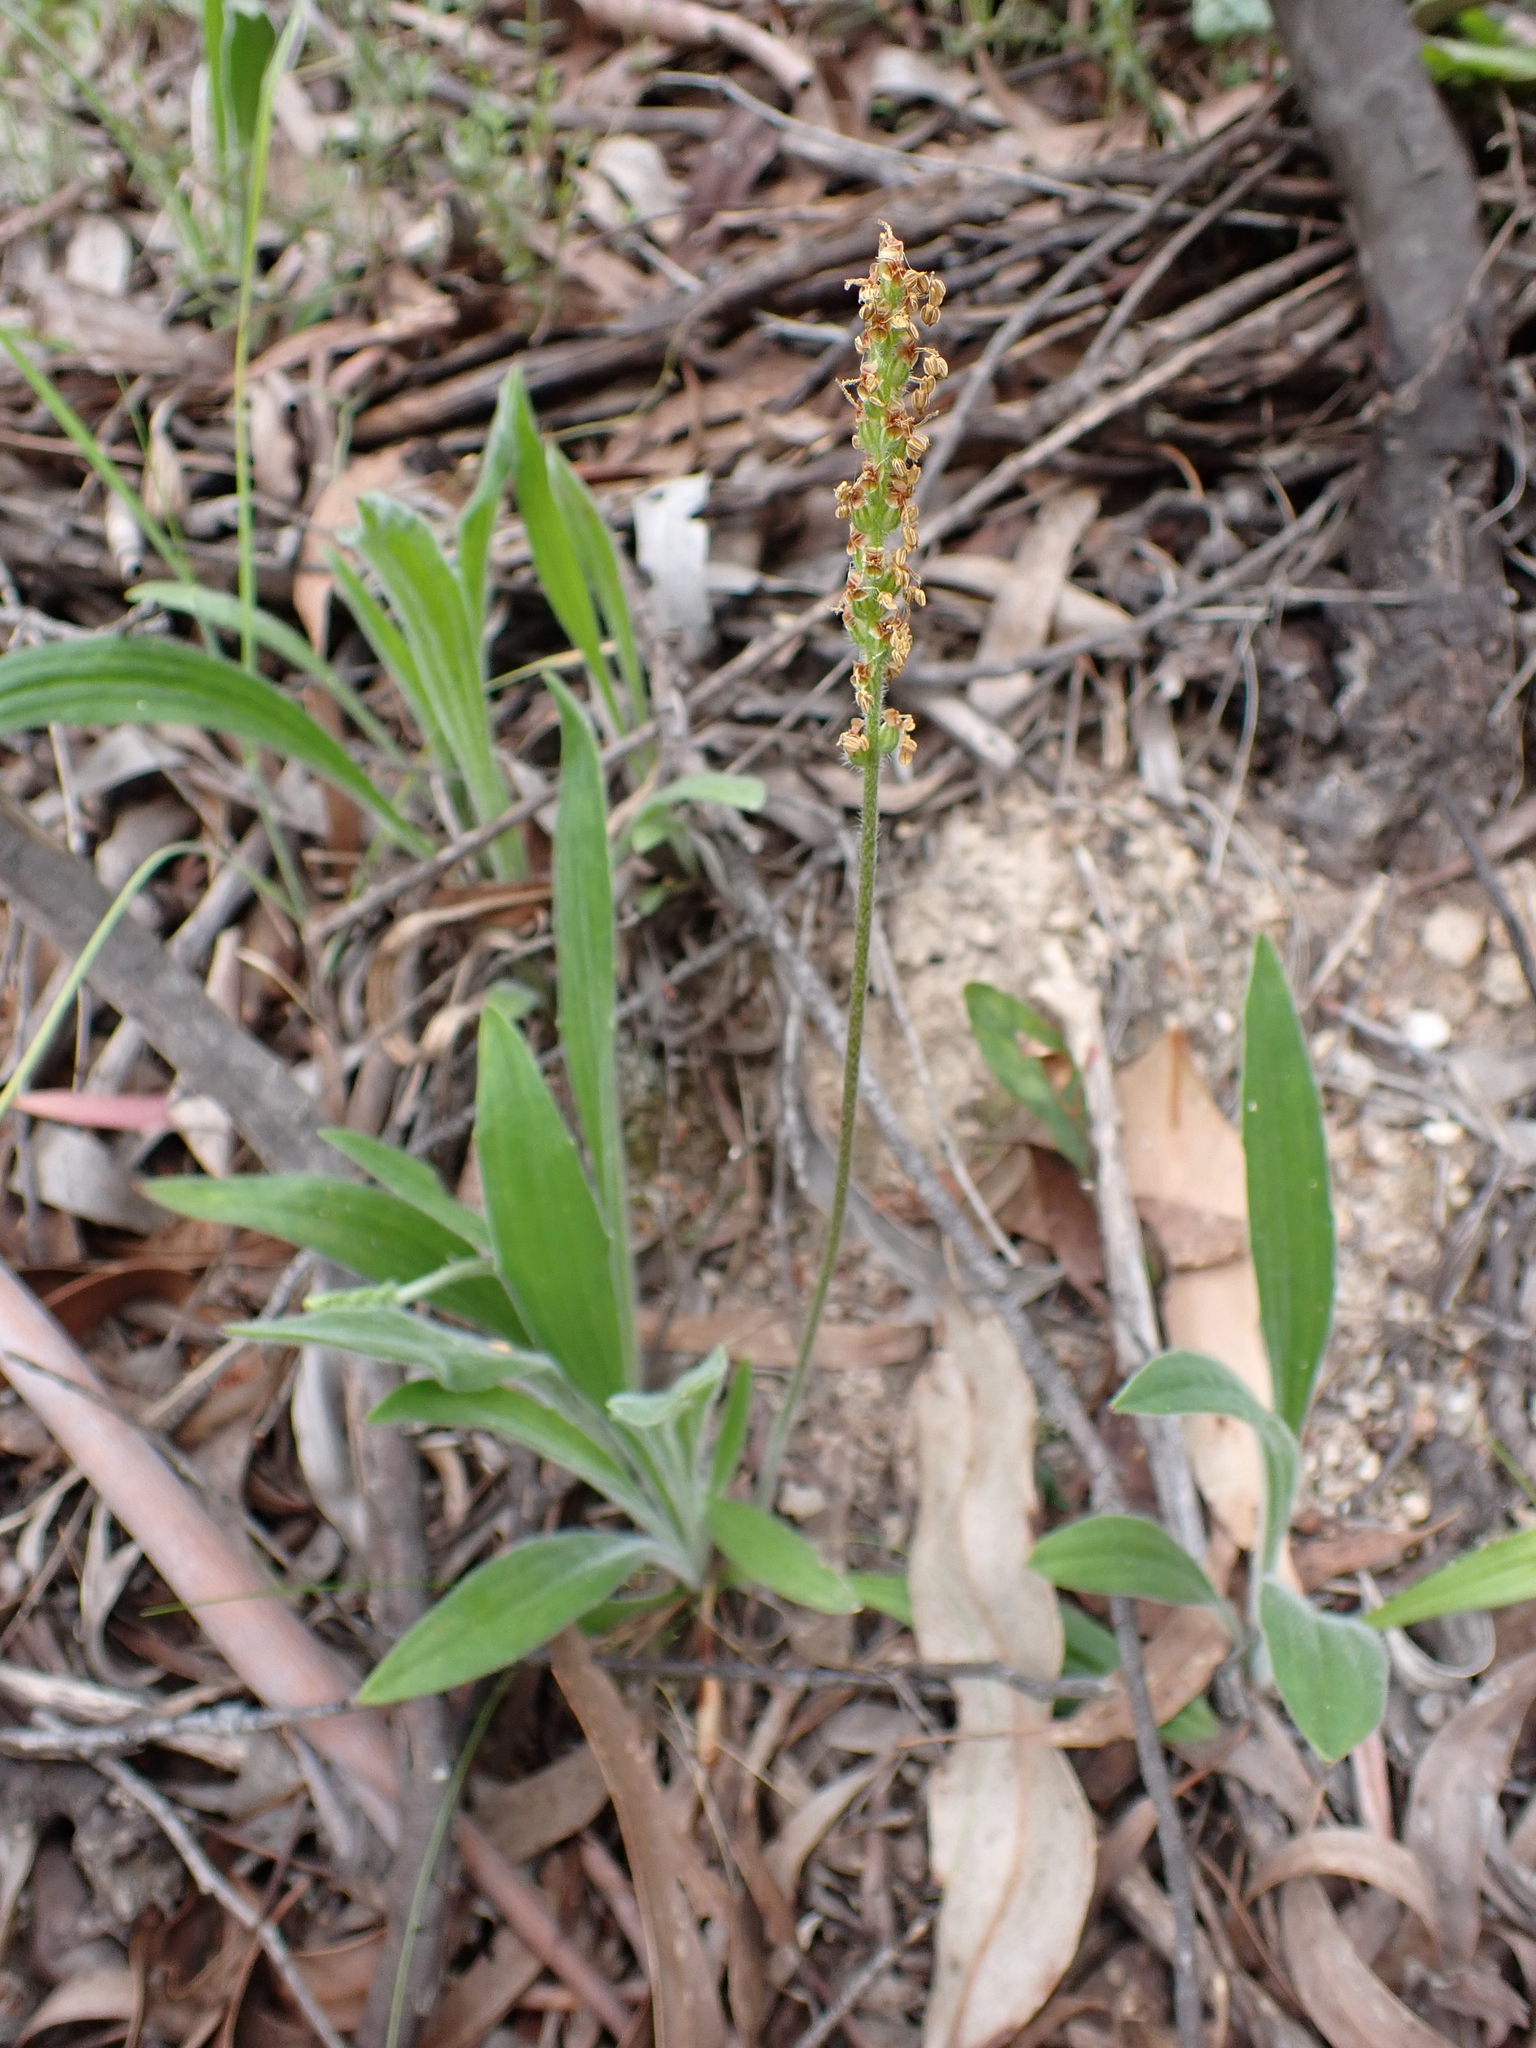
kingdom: Plantae
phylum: Tracheophyta
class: Magnoliopsida
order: Lamiales
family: Plantaginaceae
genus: Plantago
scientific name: Plantago varia
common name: Variable plantain
